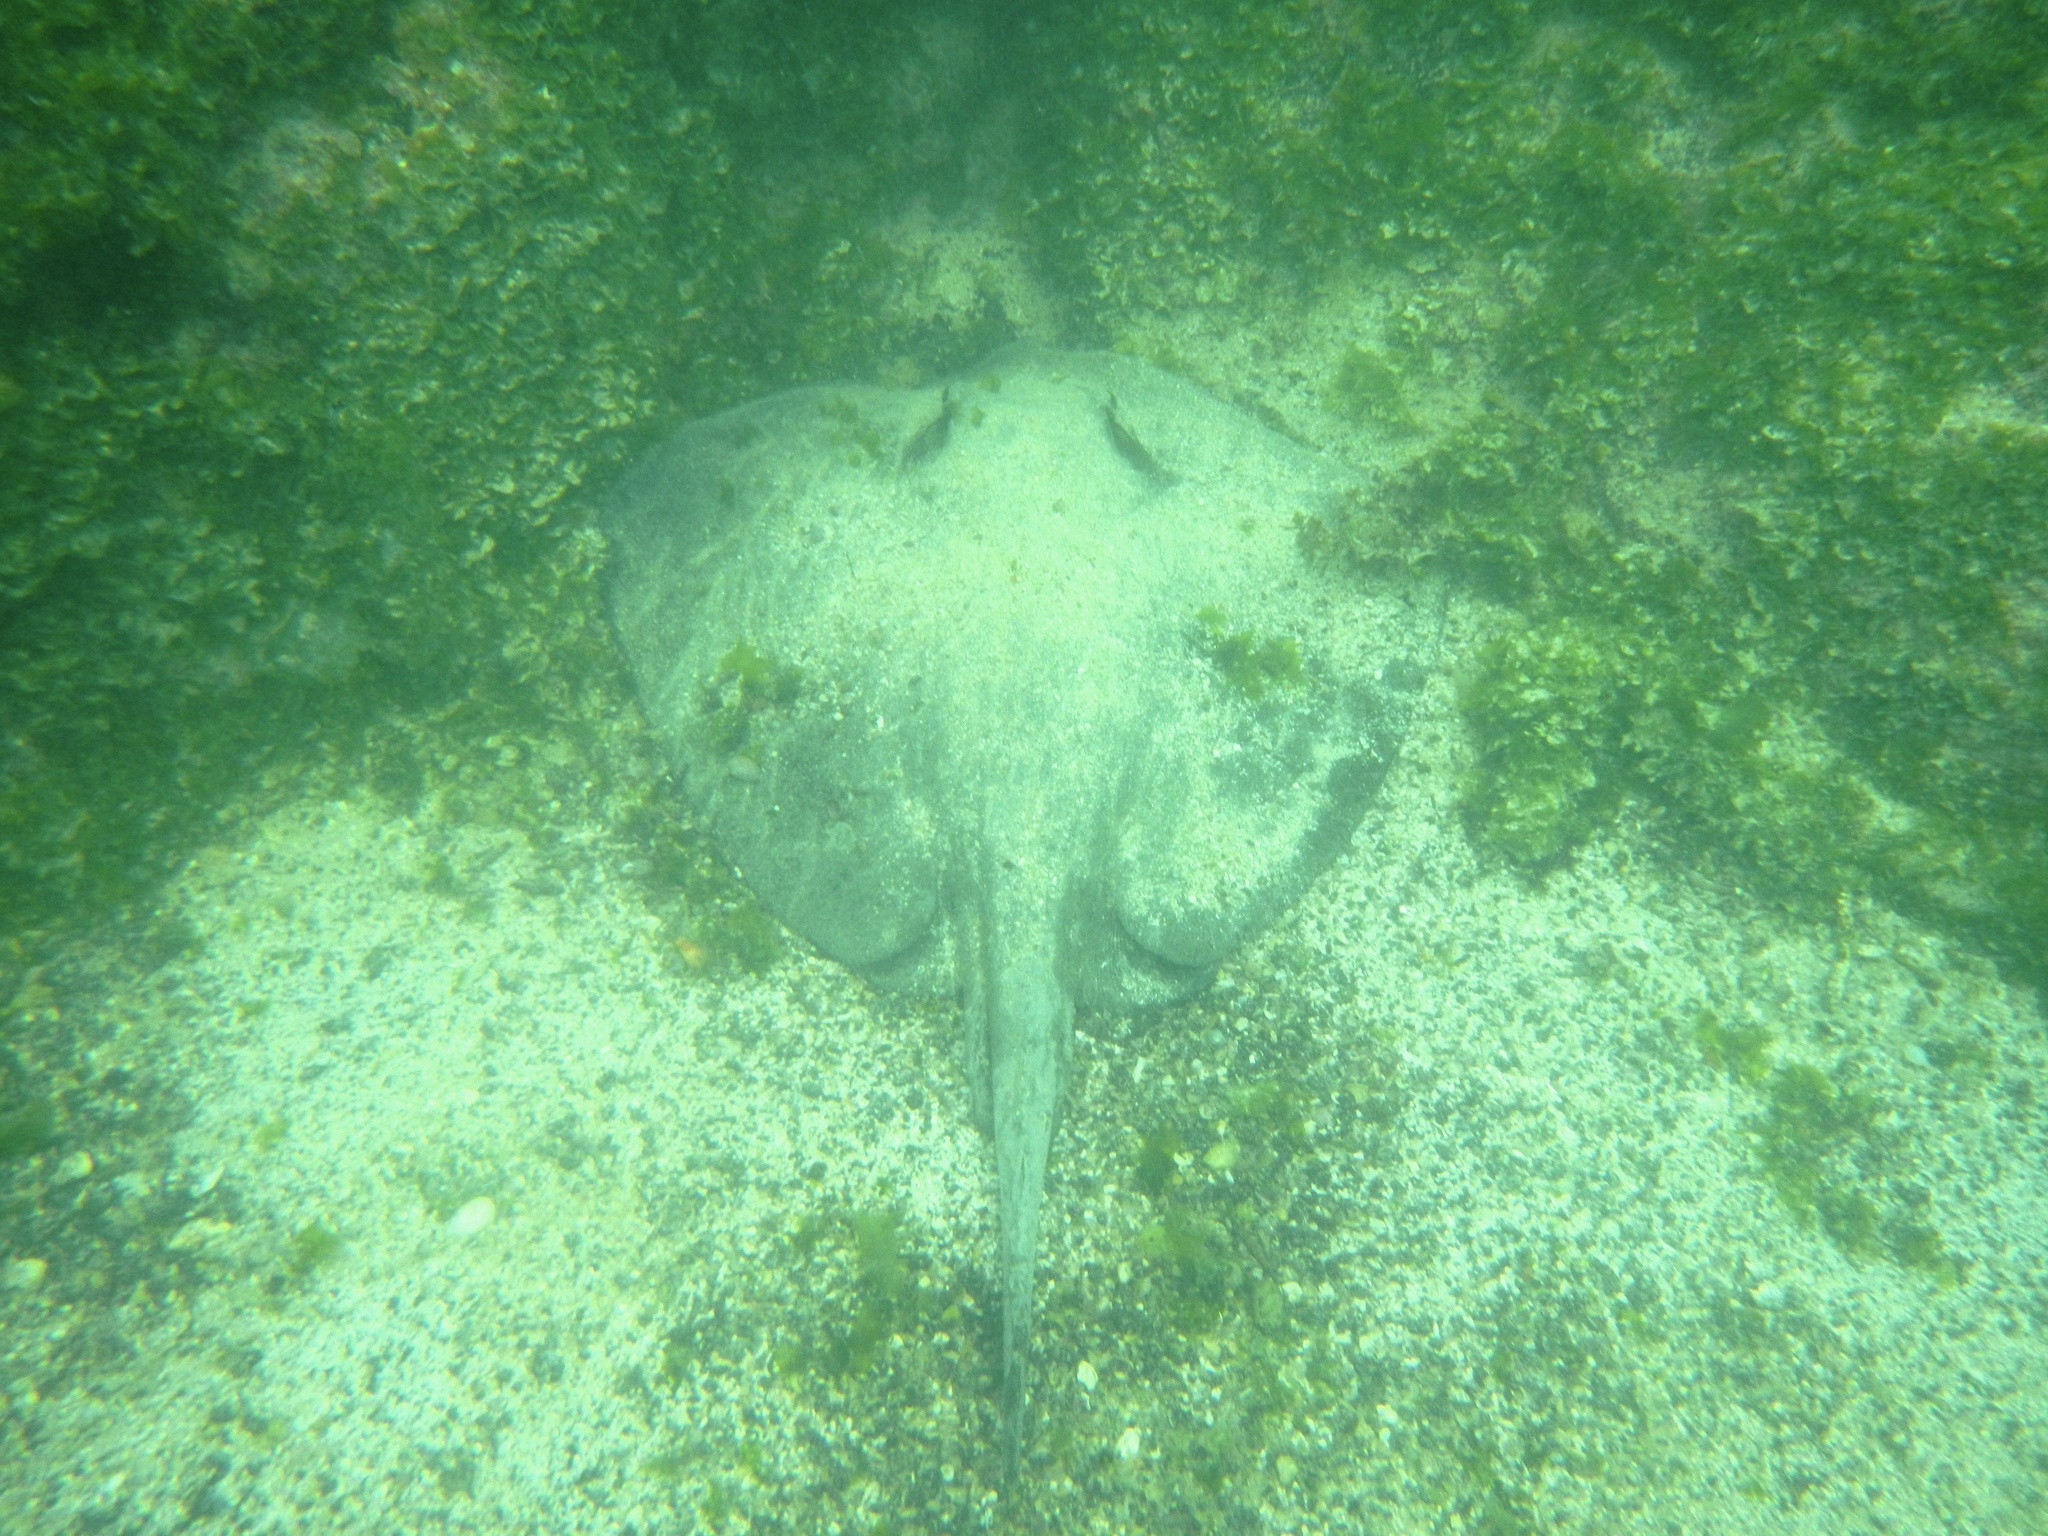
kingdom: Animalia
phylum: Chordata
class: Elasmobranchii
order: Myliobatiformes
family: Dasyatidae
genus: Hypanus
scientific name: Hypanus dipterurus
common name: Diamond stingray
